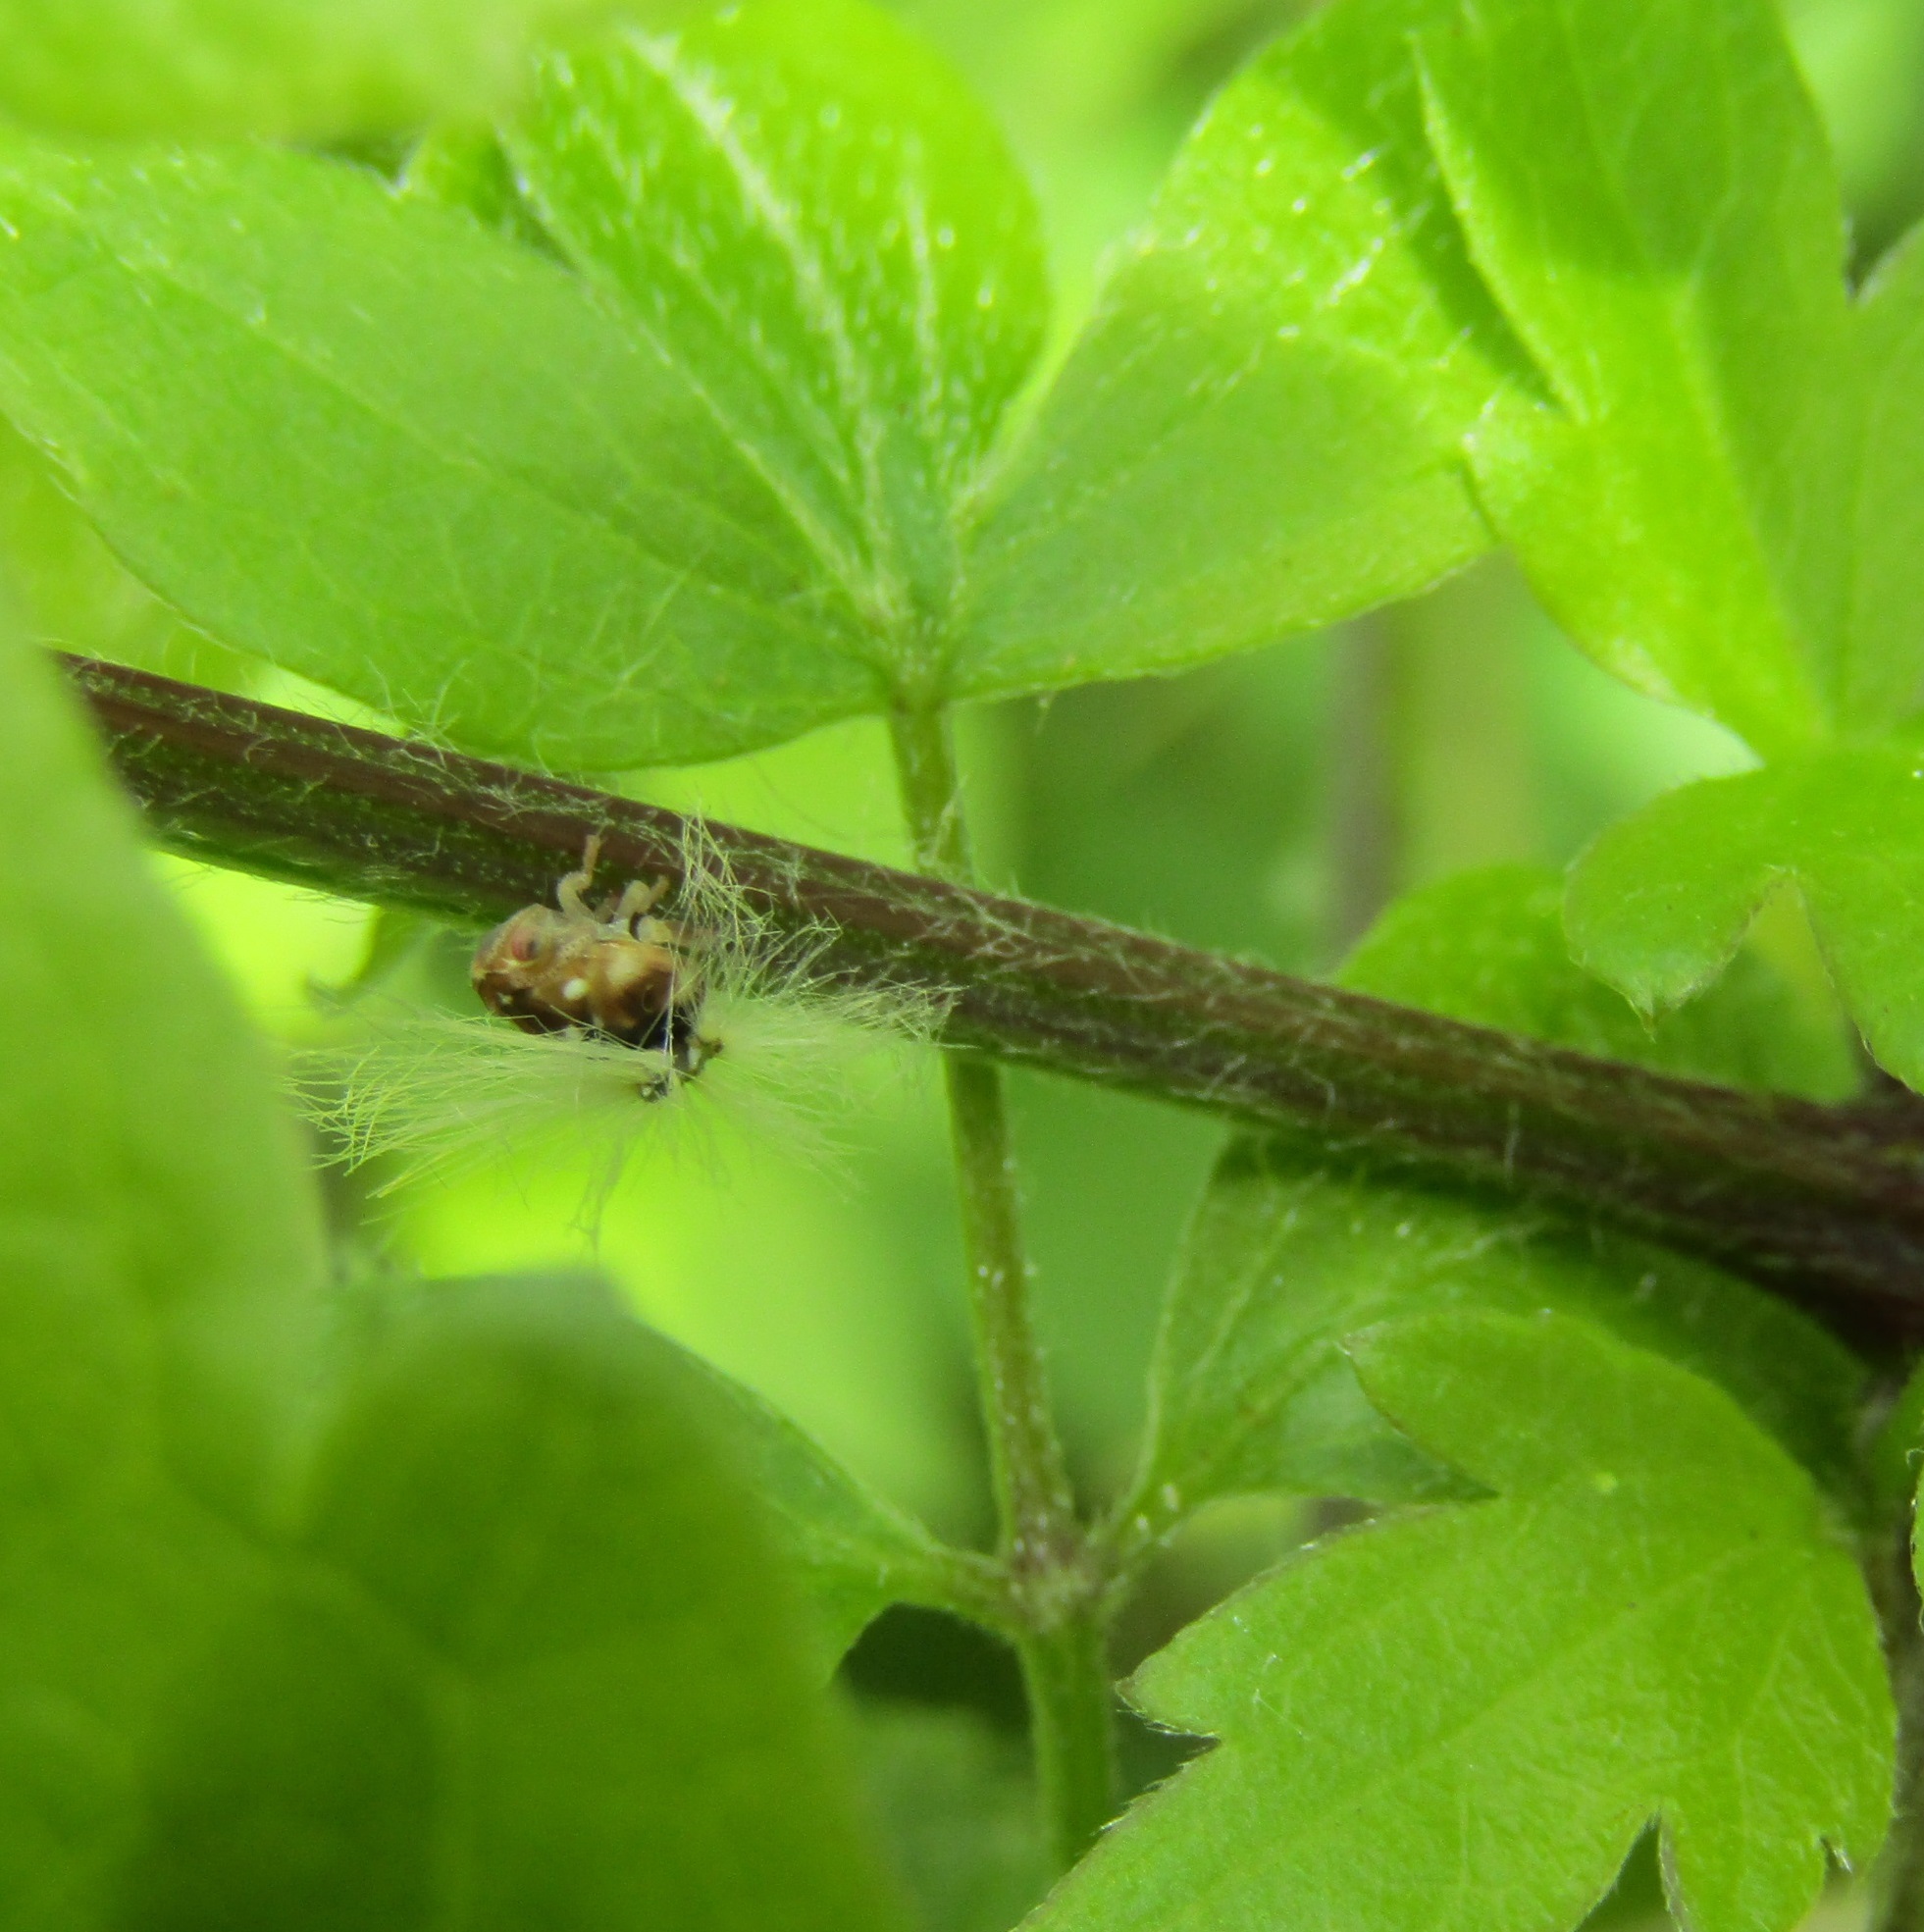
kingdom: Animalia
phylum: Arthropoda
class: Insecta
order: Hemiptera
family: Ricaniidae
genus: Scolypopa
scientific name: Scolypopa australis
